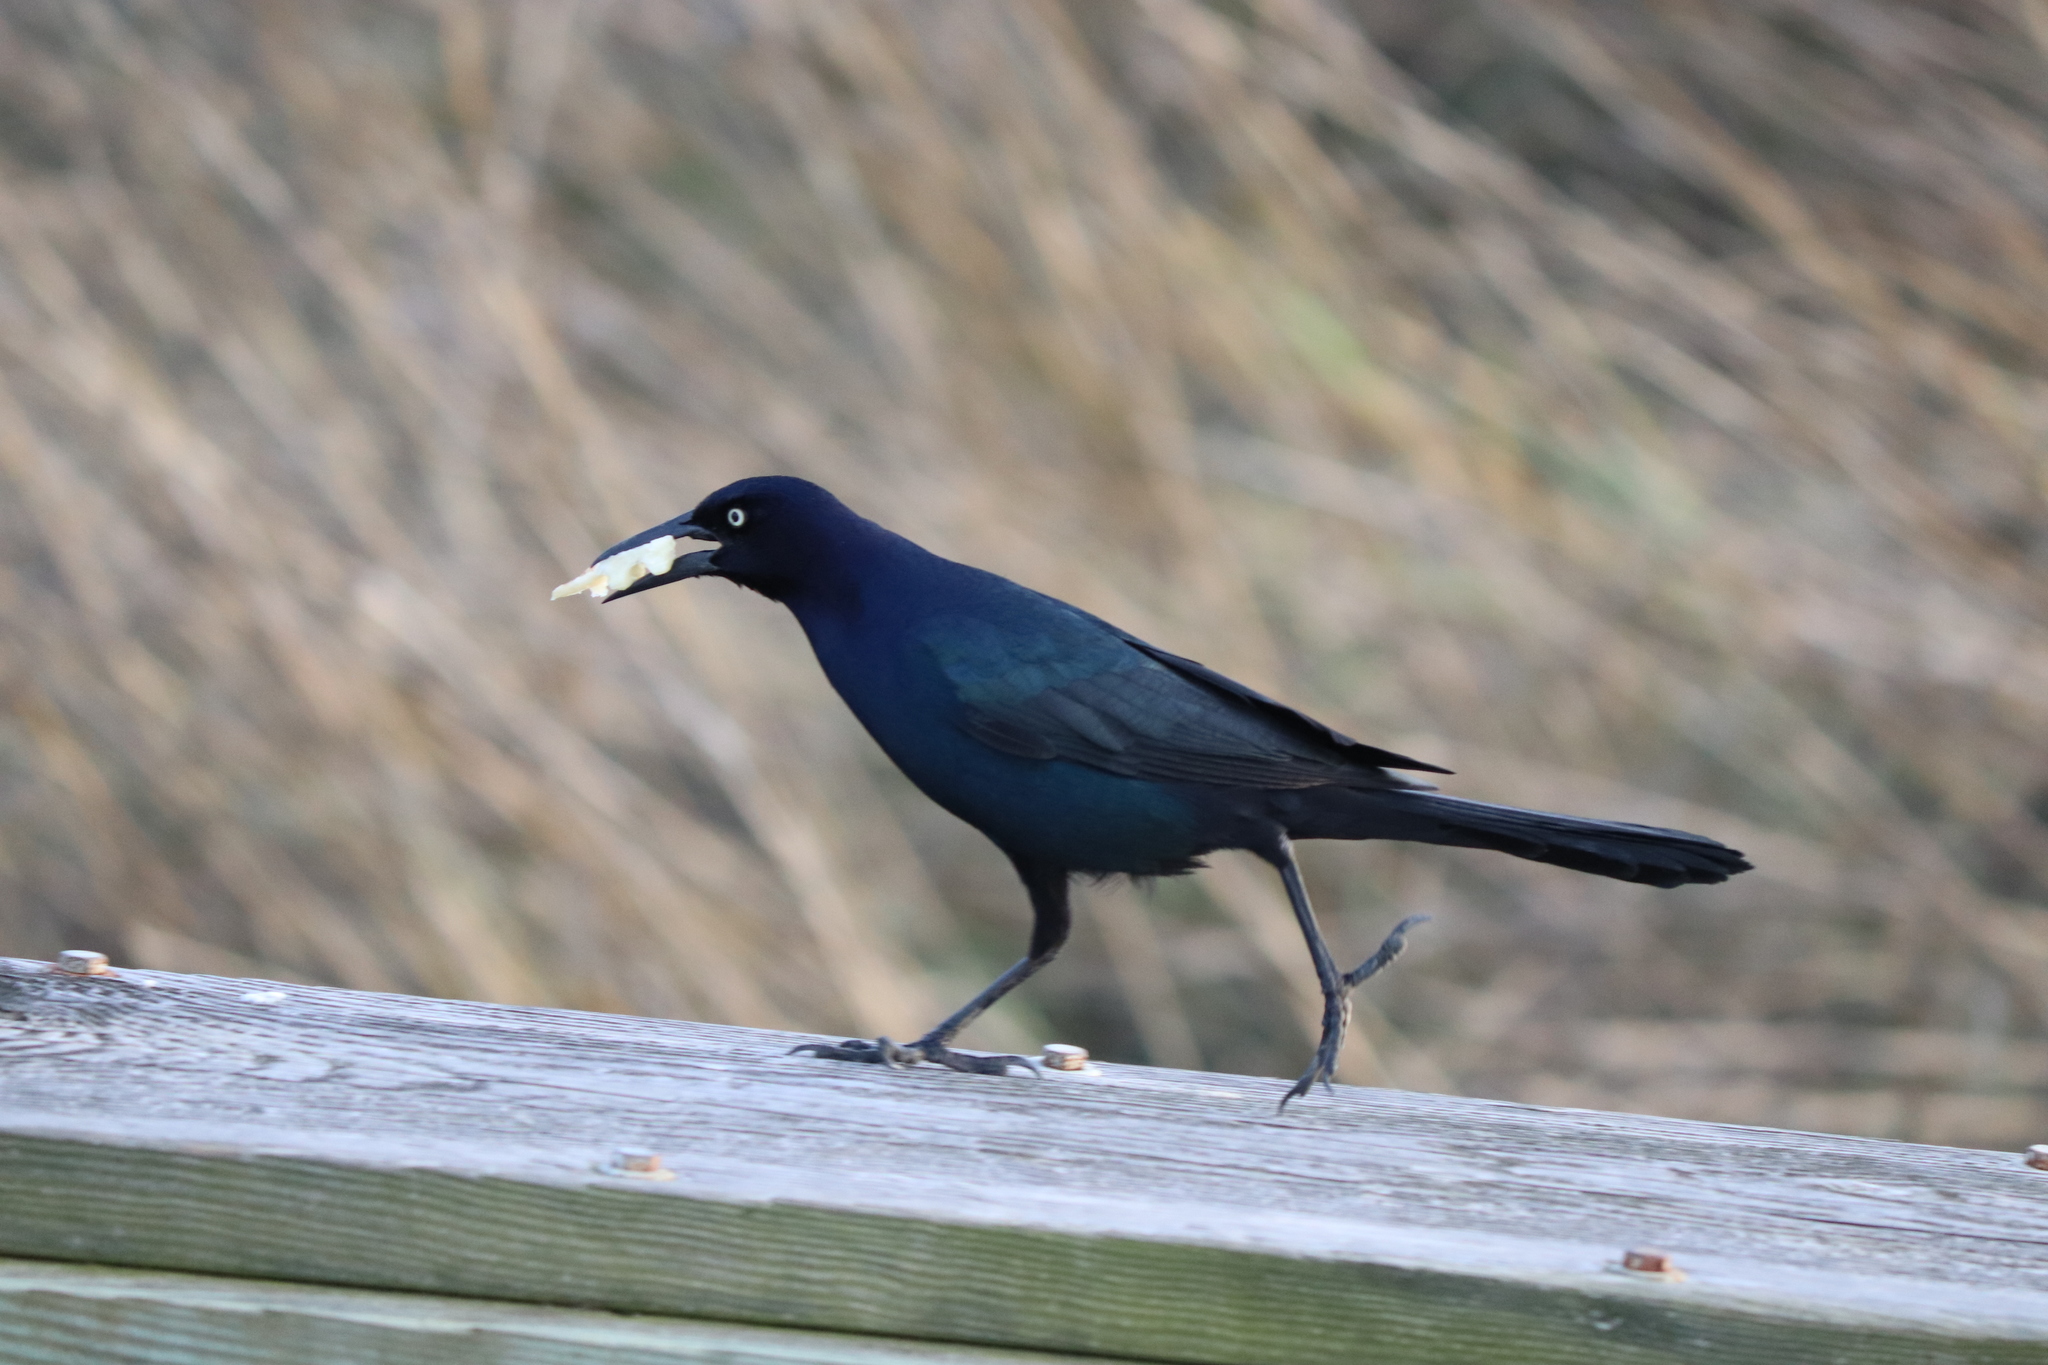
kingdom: Animalia
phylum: Chordata
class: Aves
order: Passeriformes
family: Icteridae
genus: Quiscalus
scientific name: Quiscalus major
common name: Boat-tailed grackle
